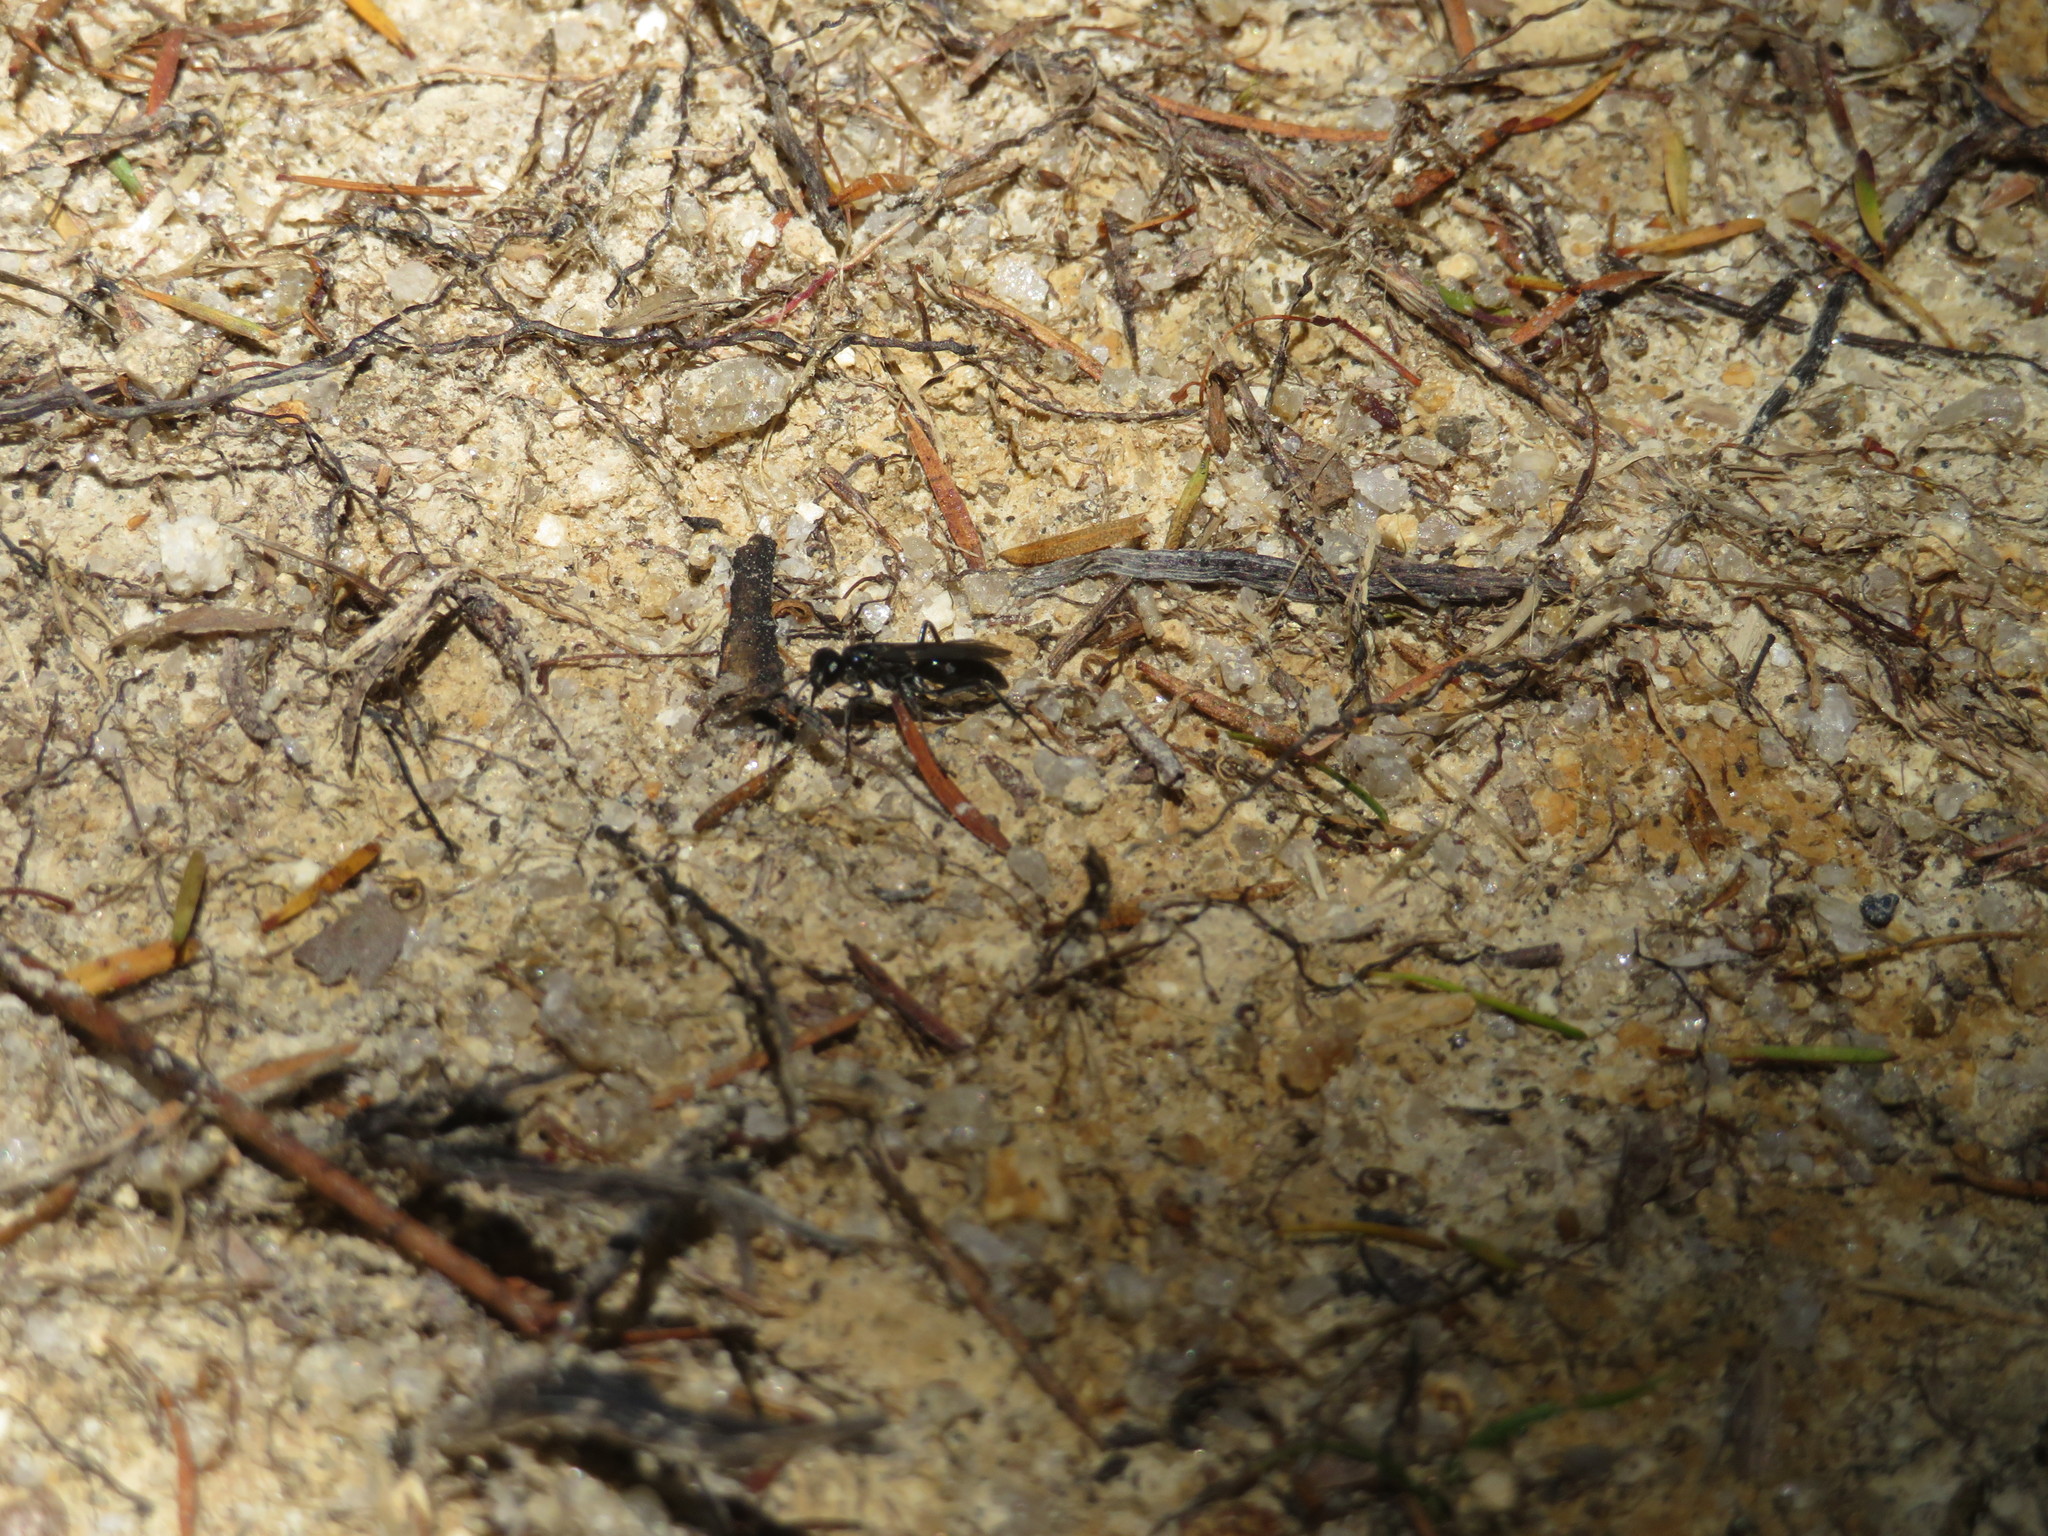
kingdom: Animalia
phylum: Arthropoda
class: Insecta
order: Hymenoptera
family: Pompilidae
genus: Priocnemis
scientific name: Priocnemis monachus
